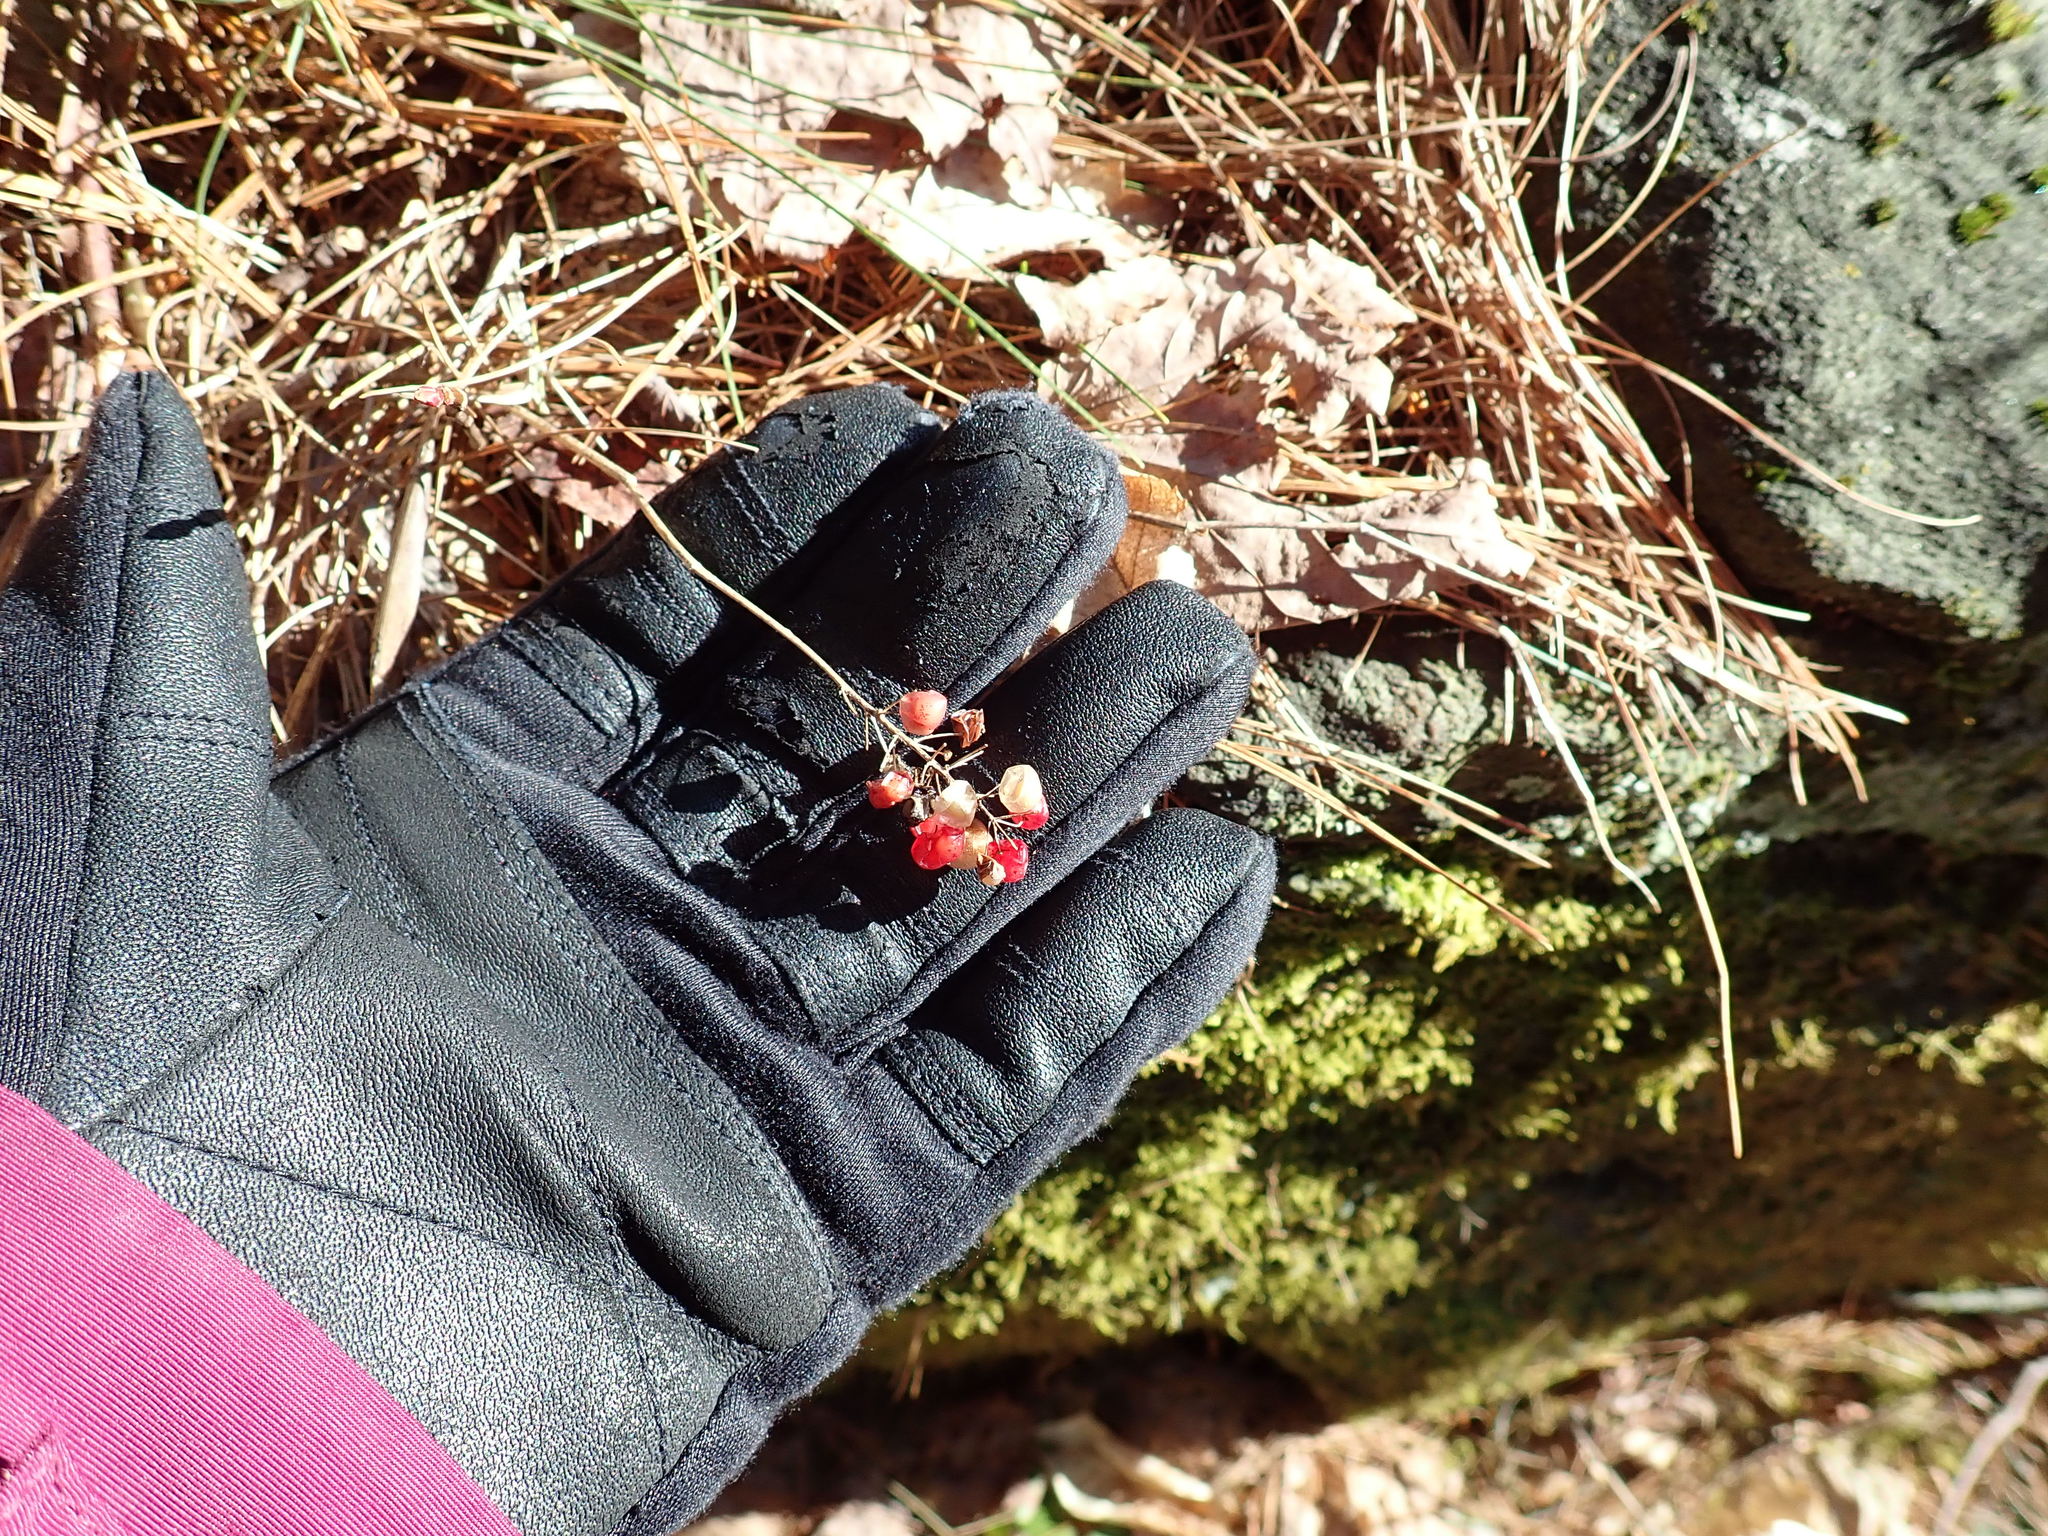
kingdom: Plantae
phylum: Tracheophyta
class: Liliopsida
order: Asparagales
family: Asparagaceae
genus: Maianthemum
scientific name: Maianthemum canadense
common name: False lily-of-the-valley
